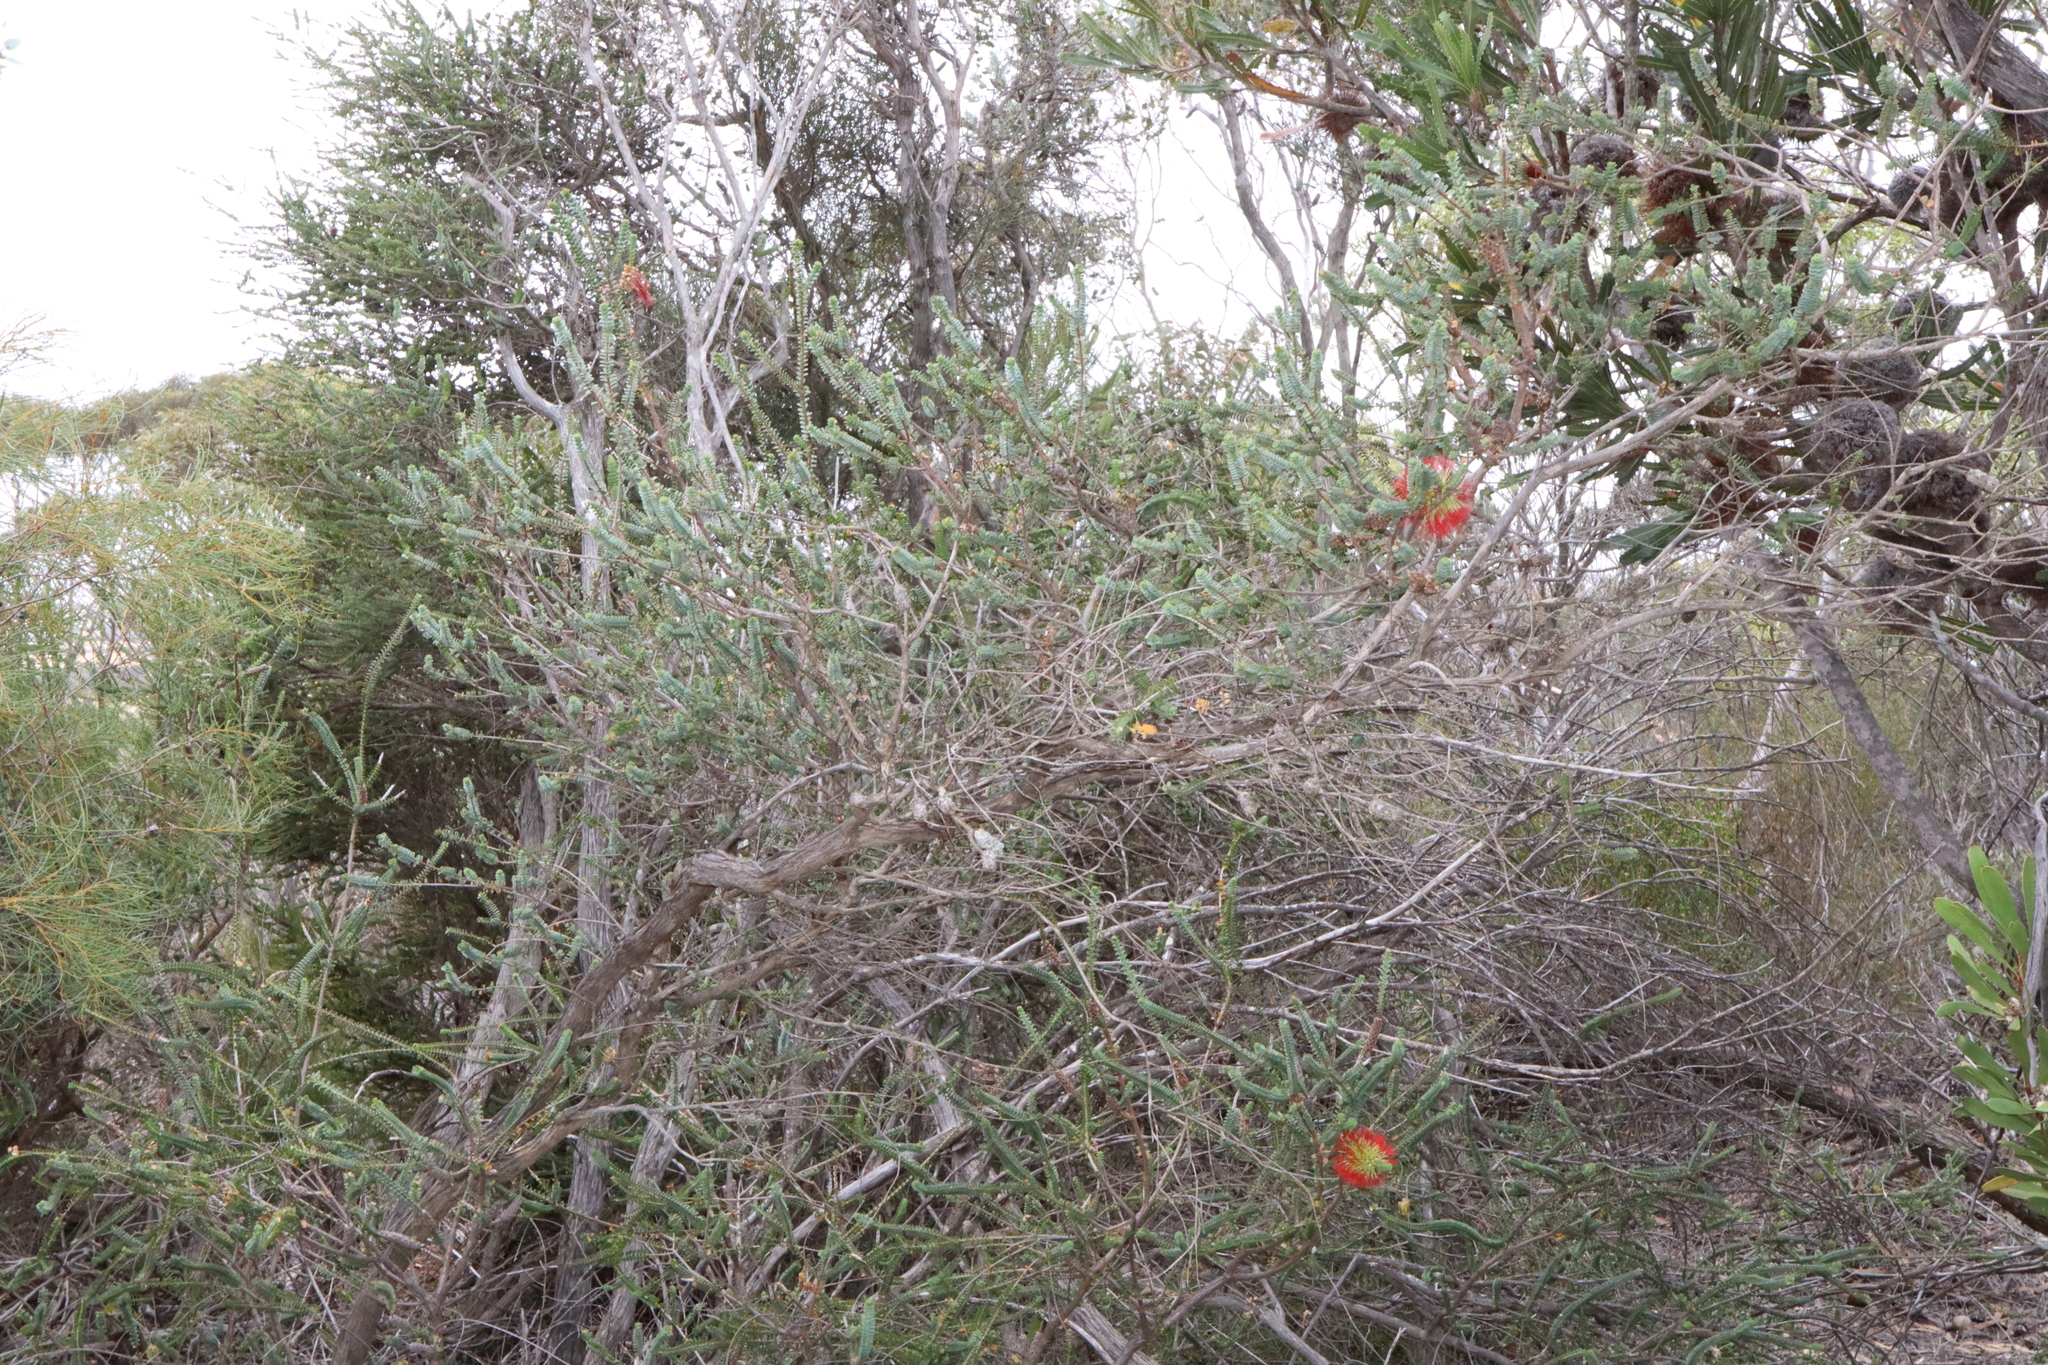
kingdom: Plantae
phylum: Tracheophyta
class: Magnoliopsida
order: Myrtales
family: Myrtaceae
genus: Melaleuca
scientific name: Melaleuca orbifolia
